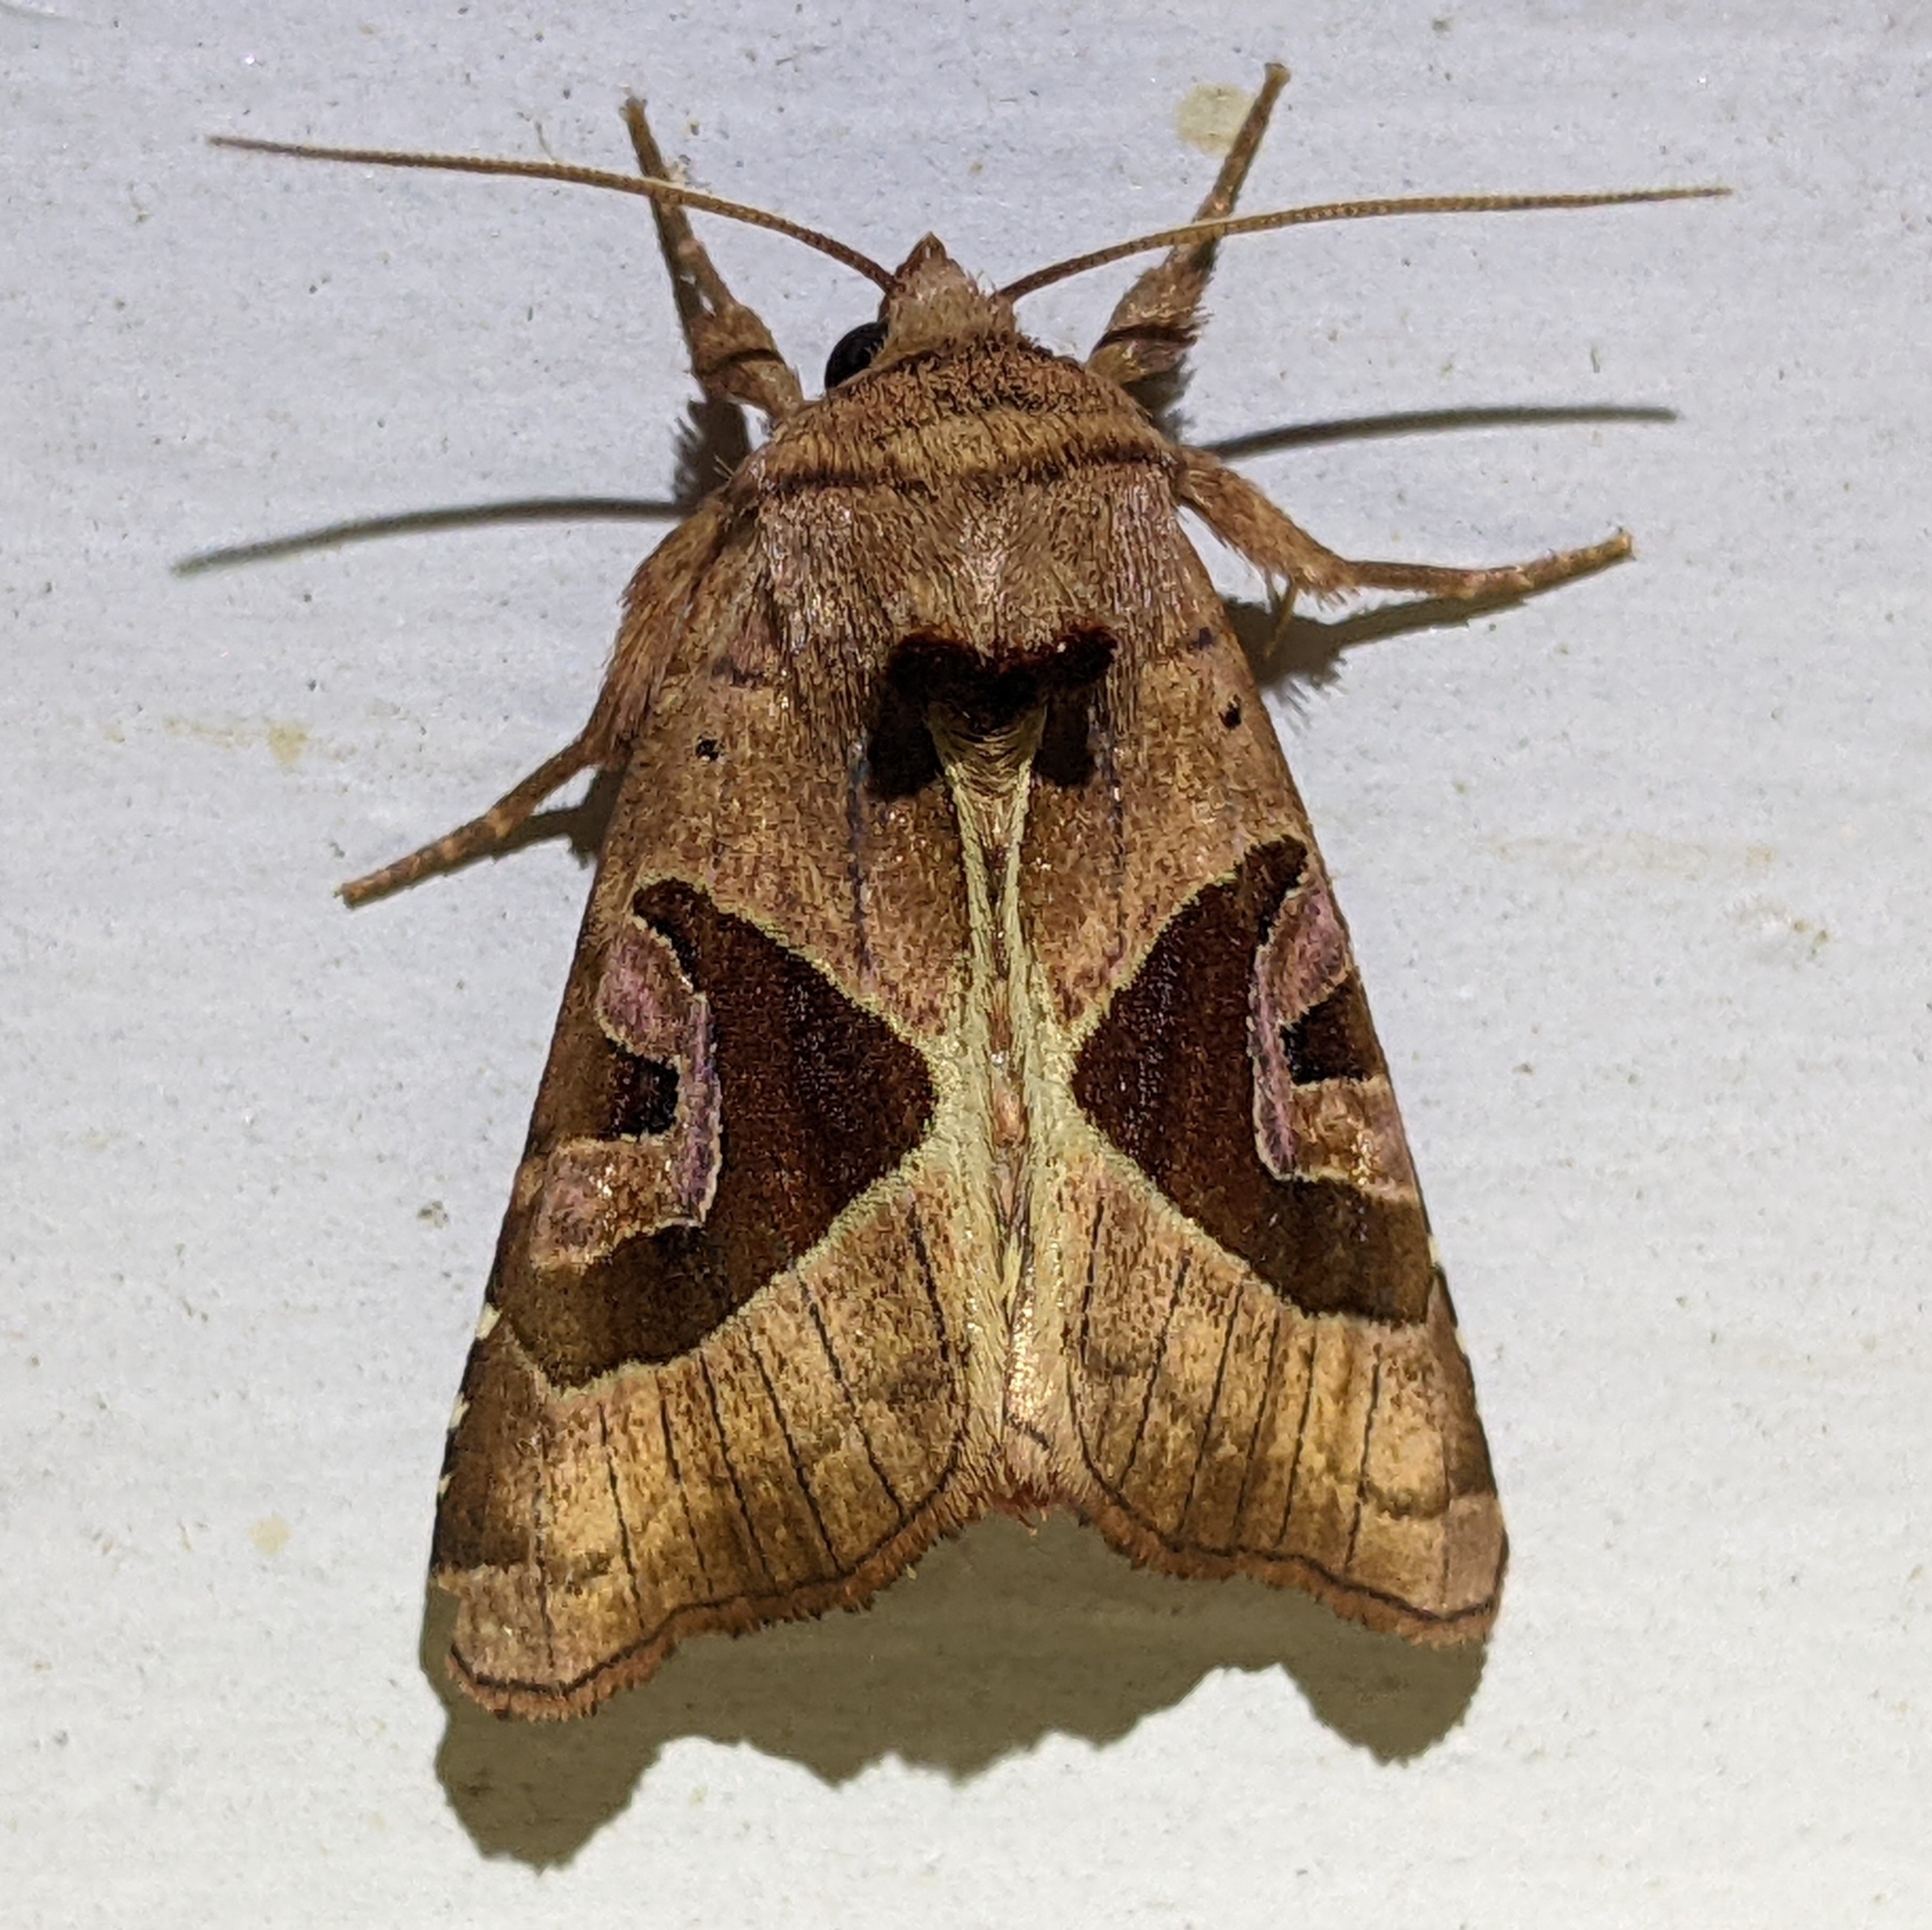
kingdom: Animalia
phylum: Arthropoda
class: Insecta
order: Lepidoptera
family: Noctuidae
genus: Conservula
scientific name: Conservula anodonta
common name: Sharp angle shades
